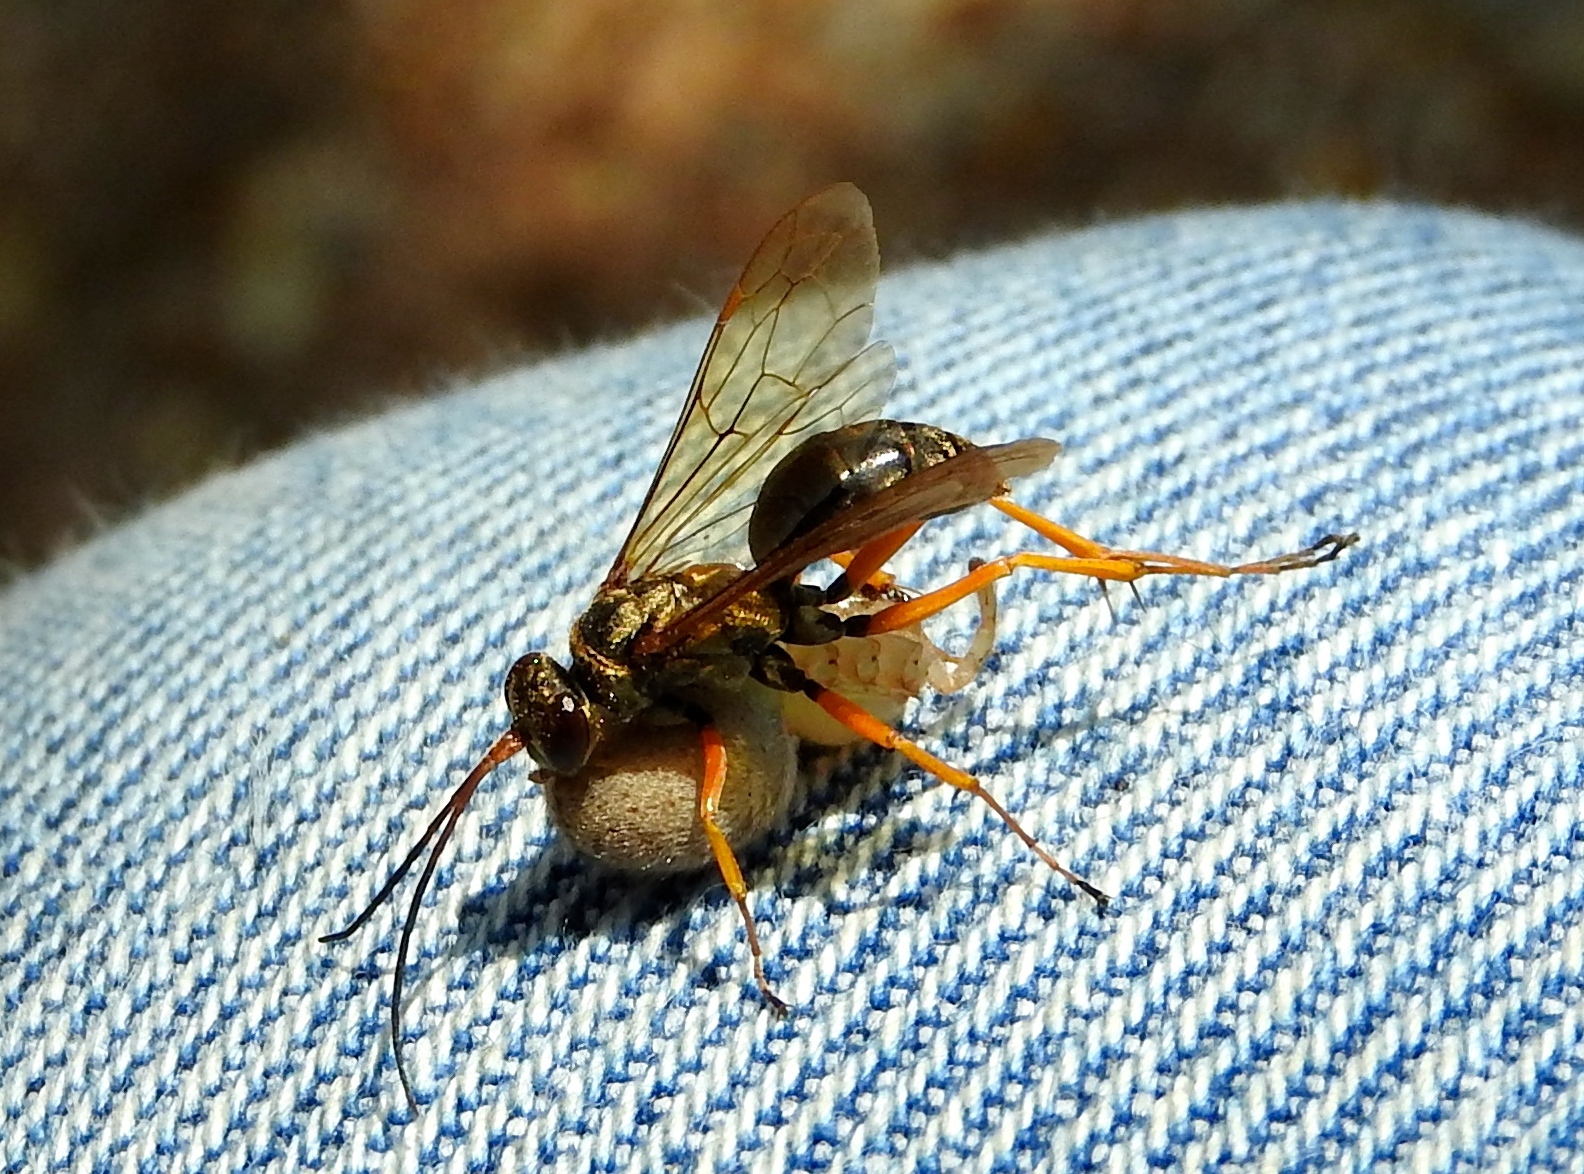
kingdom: Animalia
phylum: Arthropoda
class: Arachnida
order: Araneae
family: Sparassidae
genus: Curicaberis
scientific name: Curicaberis culiacan
